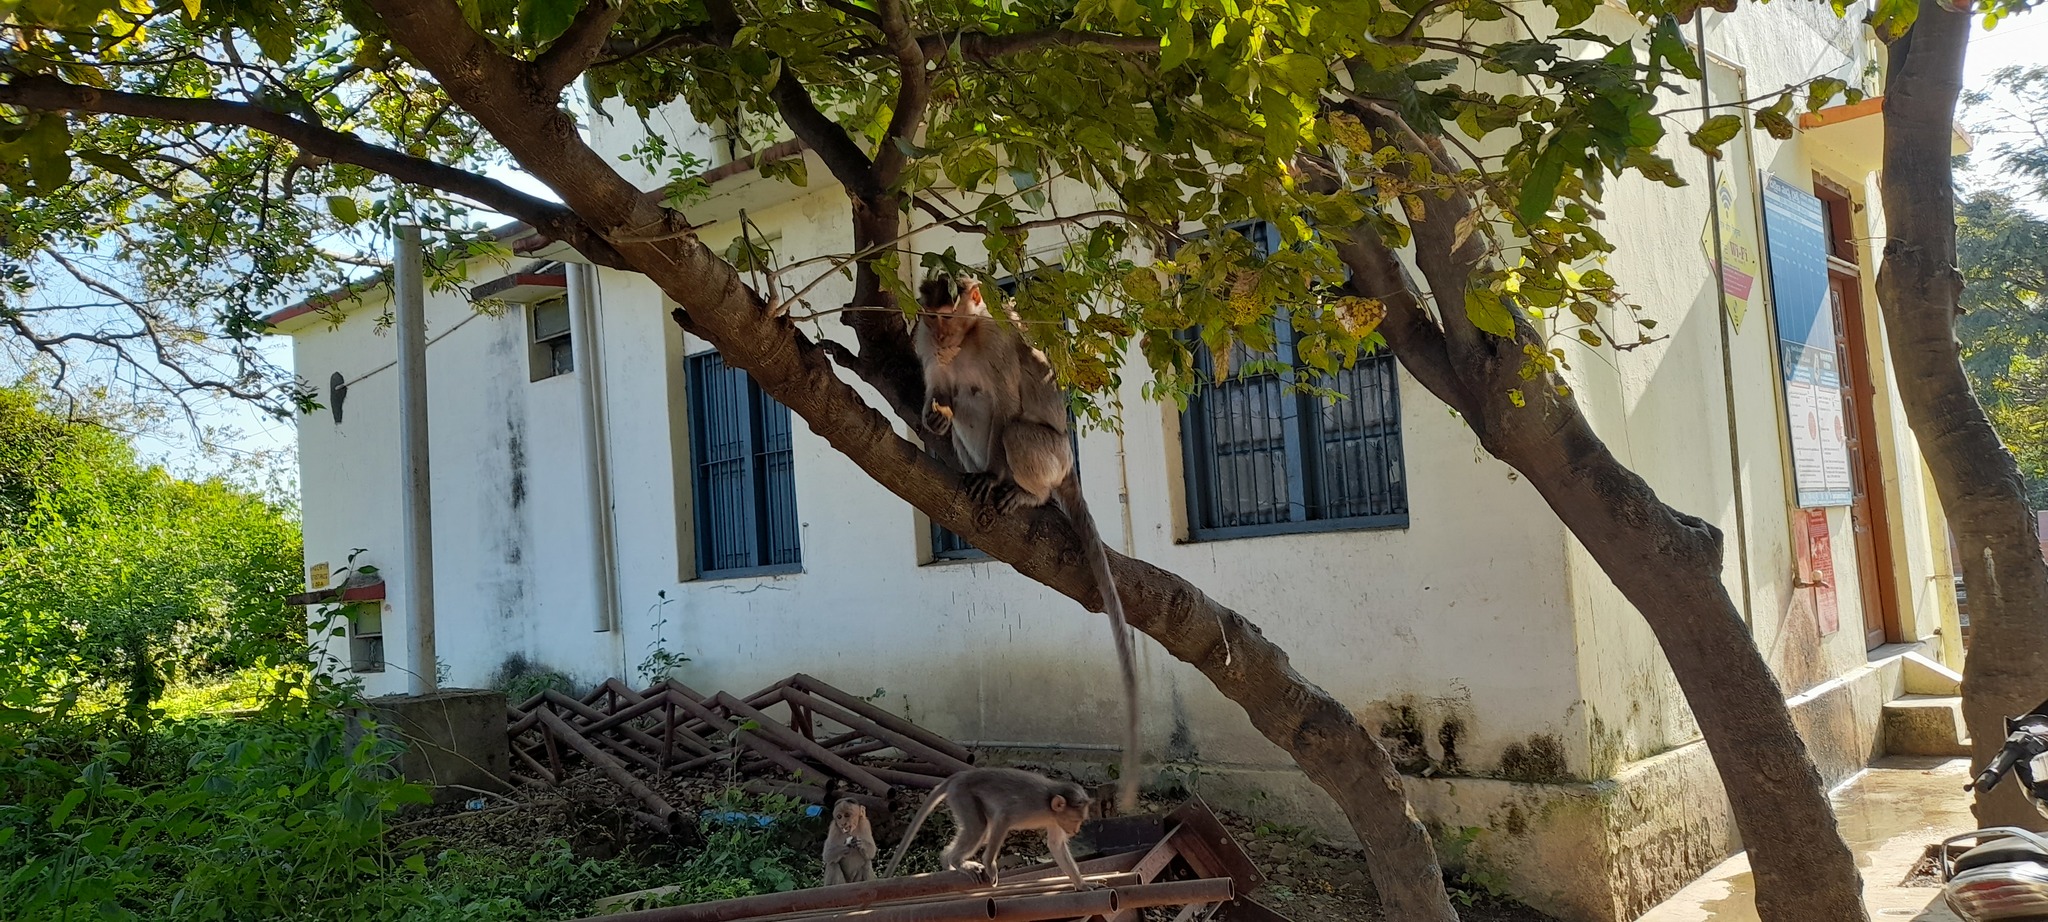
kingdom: Animalia
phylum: Chordata
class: Mammalia
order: Primates
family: Cercopithecidae
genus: Macaca
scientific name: Macaca radiata
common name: Bonnet macaque
